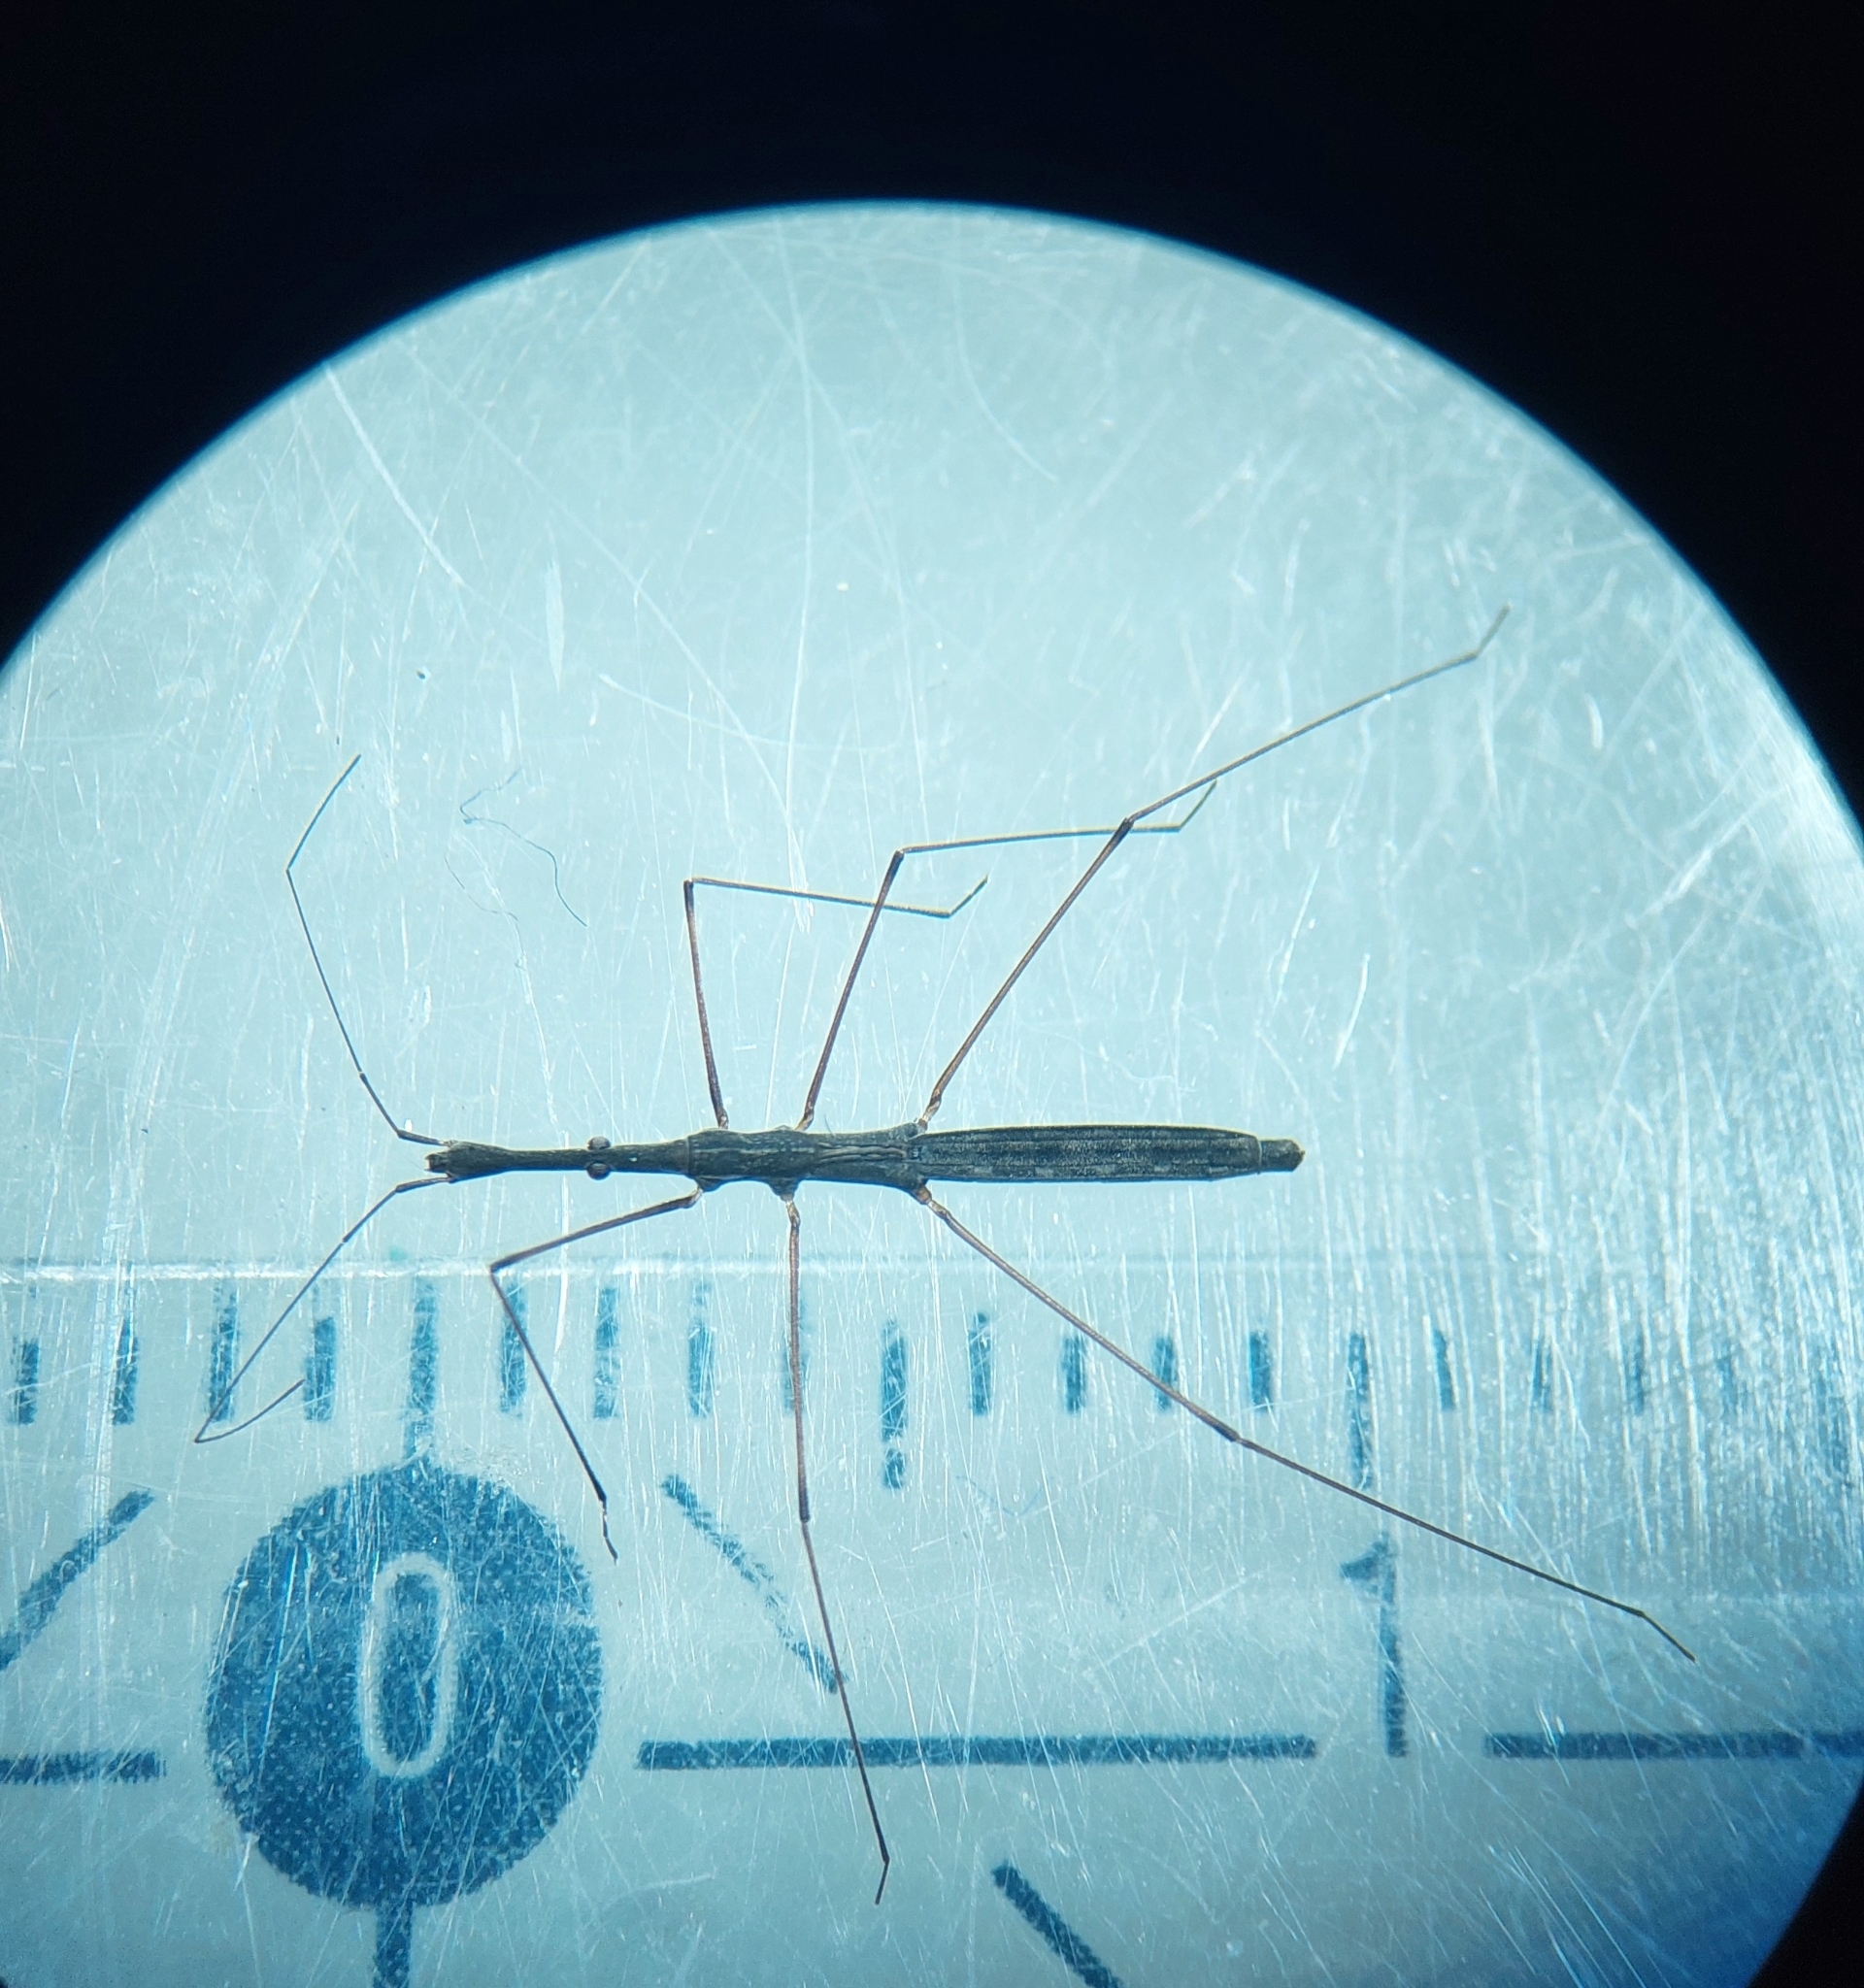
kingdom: Animalia
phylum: Arthropoda
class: Insecta
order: Hemiptera
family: Hydrometridae
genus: Hydrometra
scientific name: Hydrometra stagnorum
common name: Water measurer
